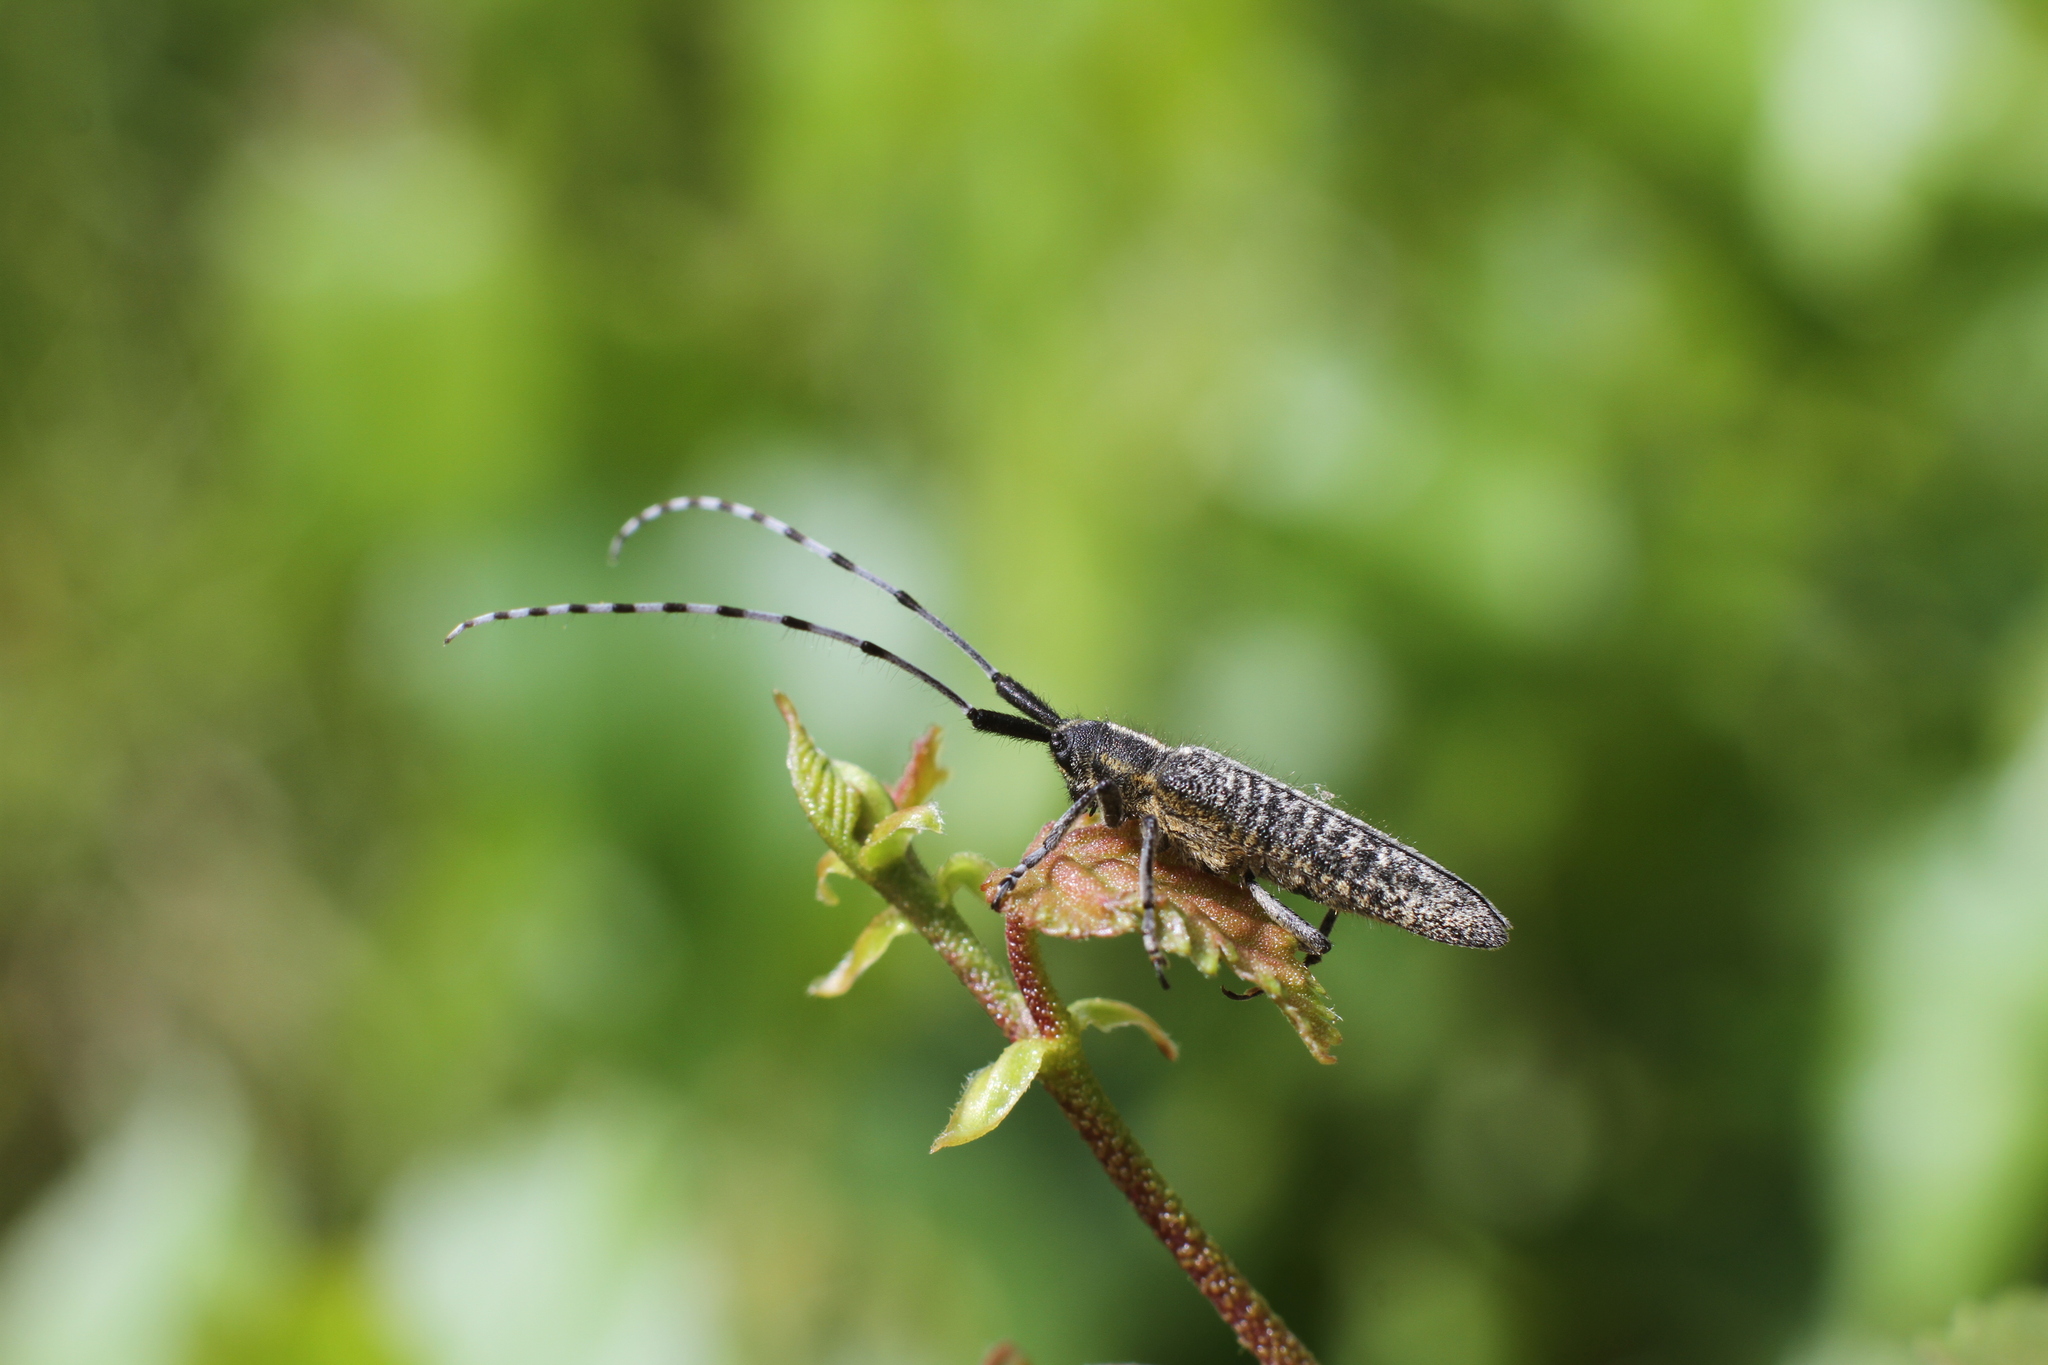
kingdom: Animalia
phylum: Arthropoda
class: Insecta
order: Coleoptera
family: Cerambycidae
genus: Agapanthia
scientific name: Agapanthia villosoviridescens
